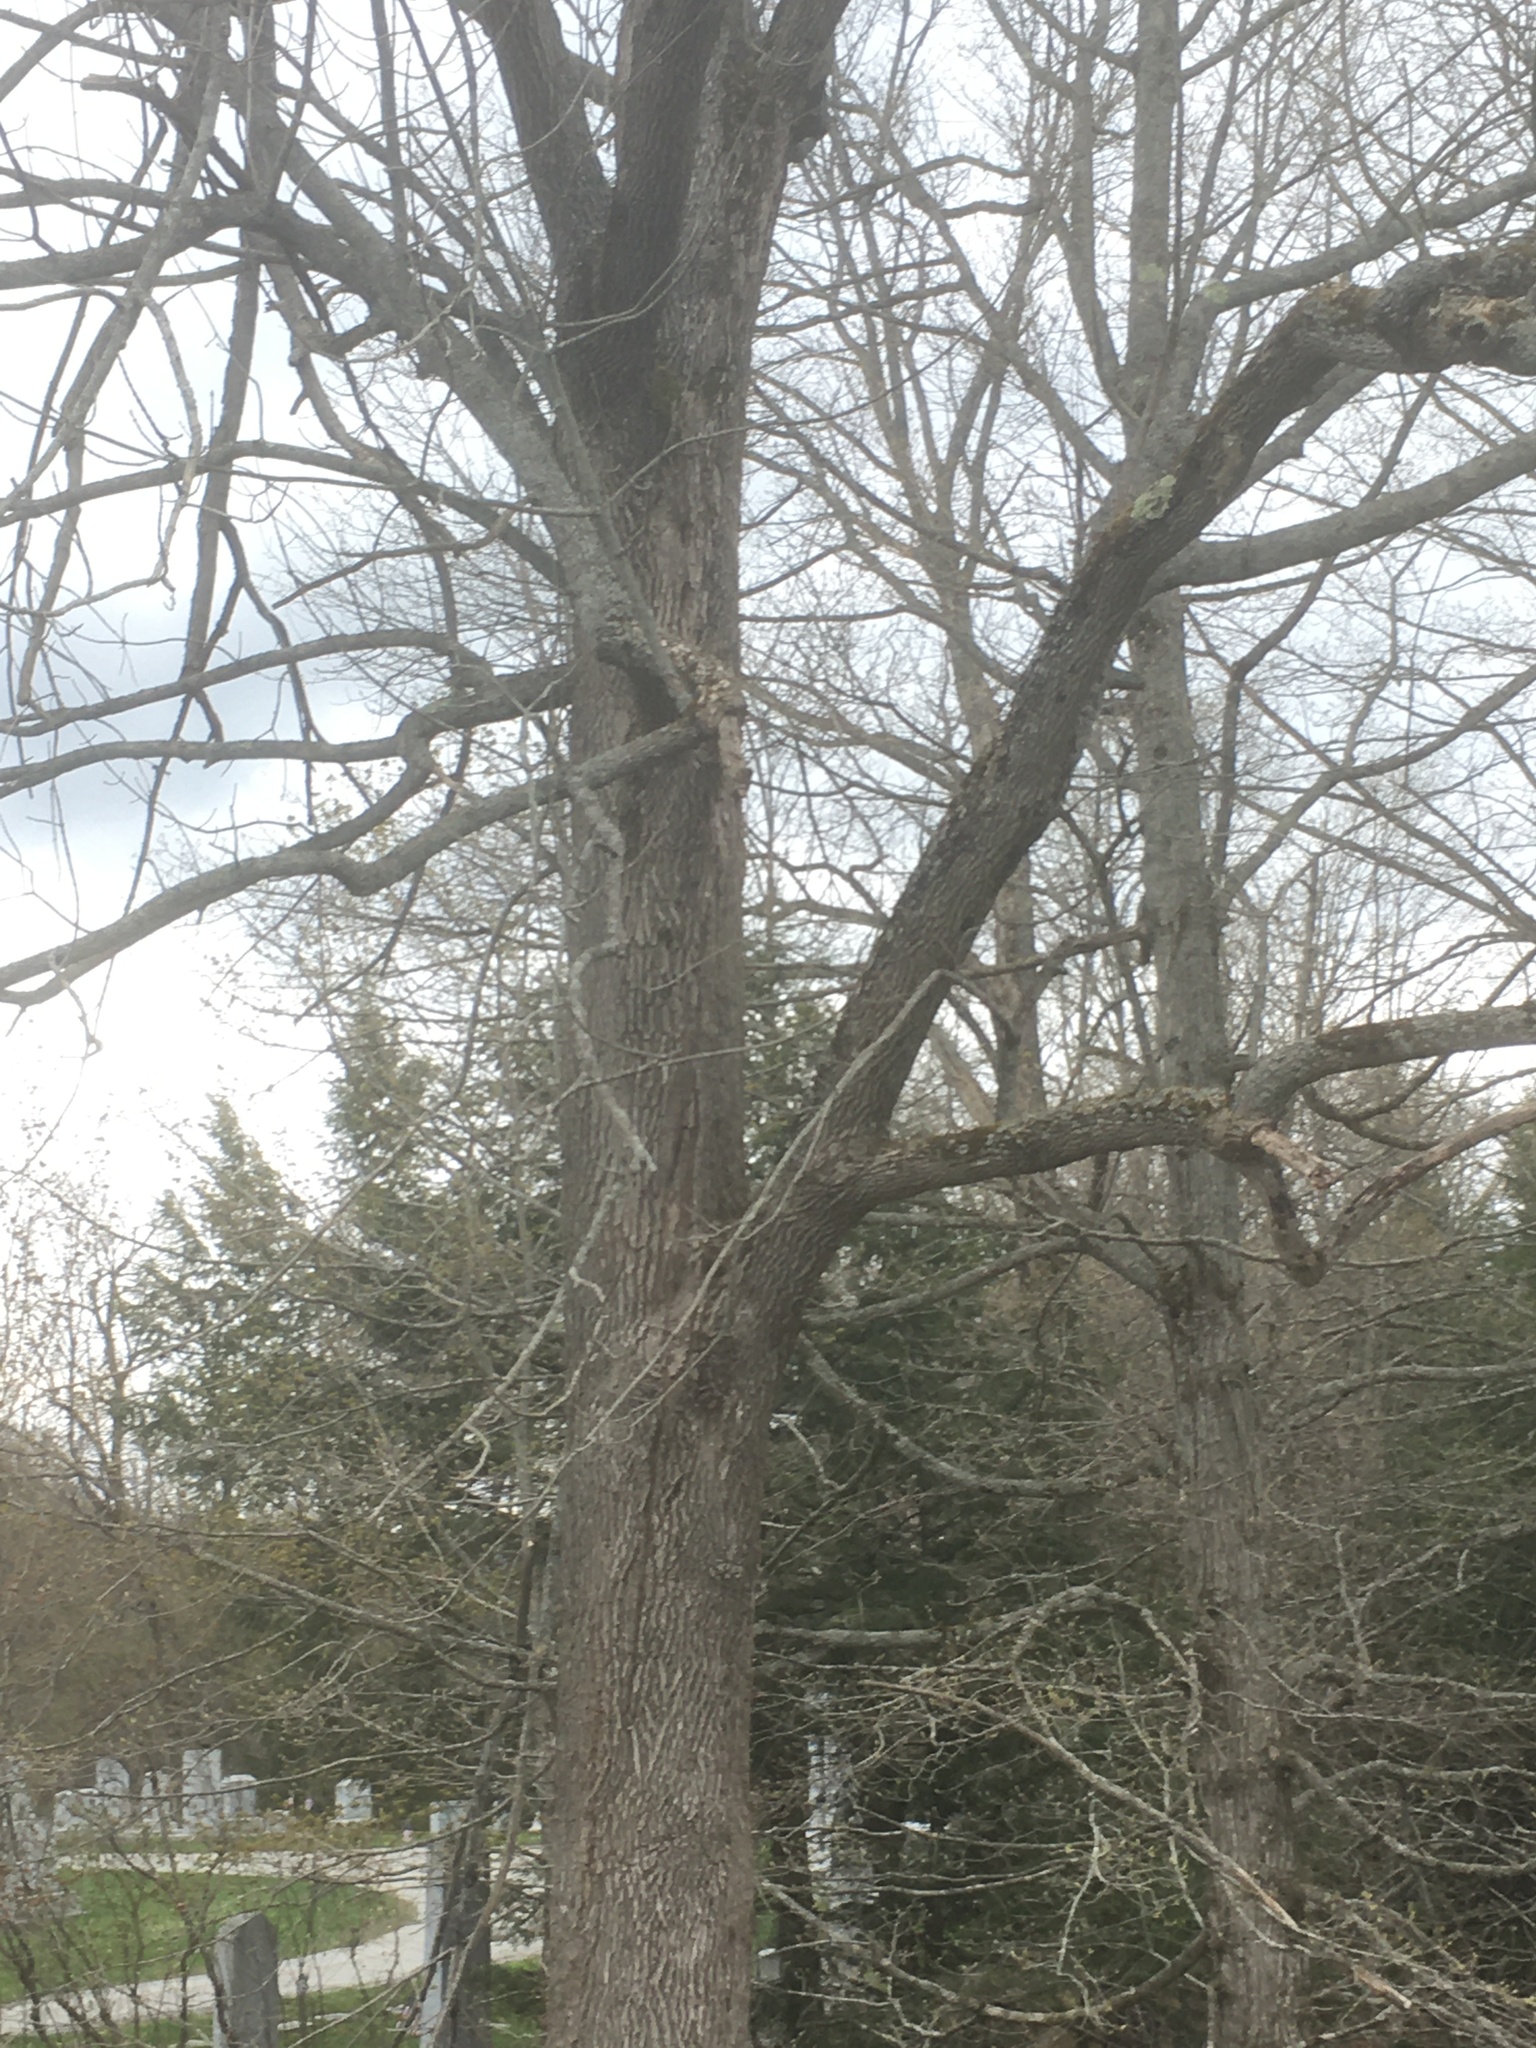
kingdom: Plantae
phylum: Tracheophyta
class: Magnoliopsida
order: Lamiales
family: Oleaceae
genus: Fraxinus
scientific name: Fraxinus americana
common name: White ash
